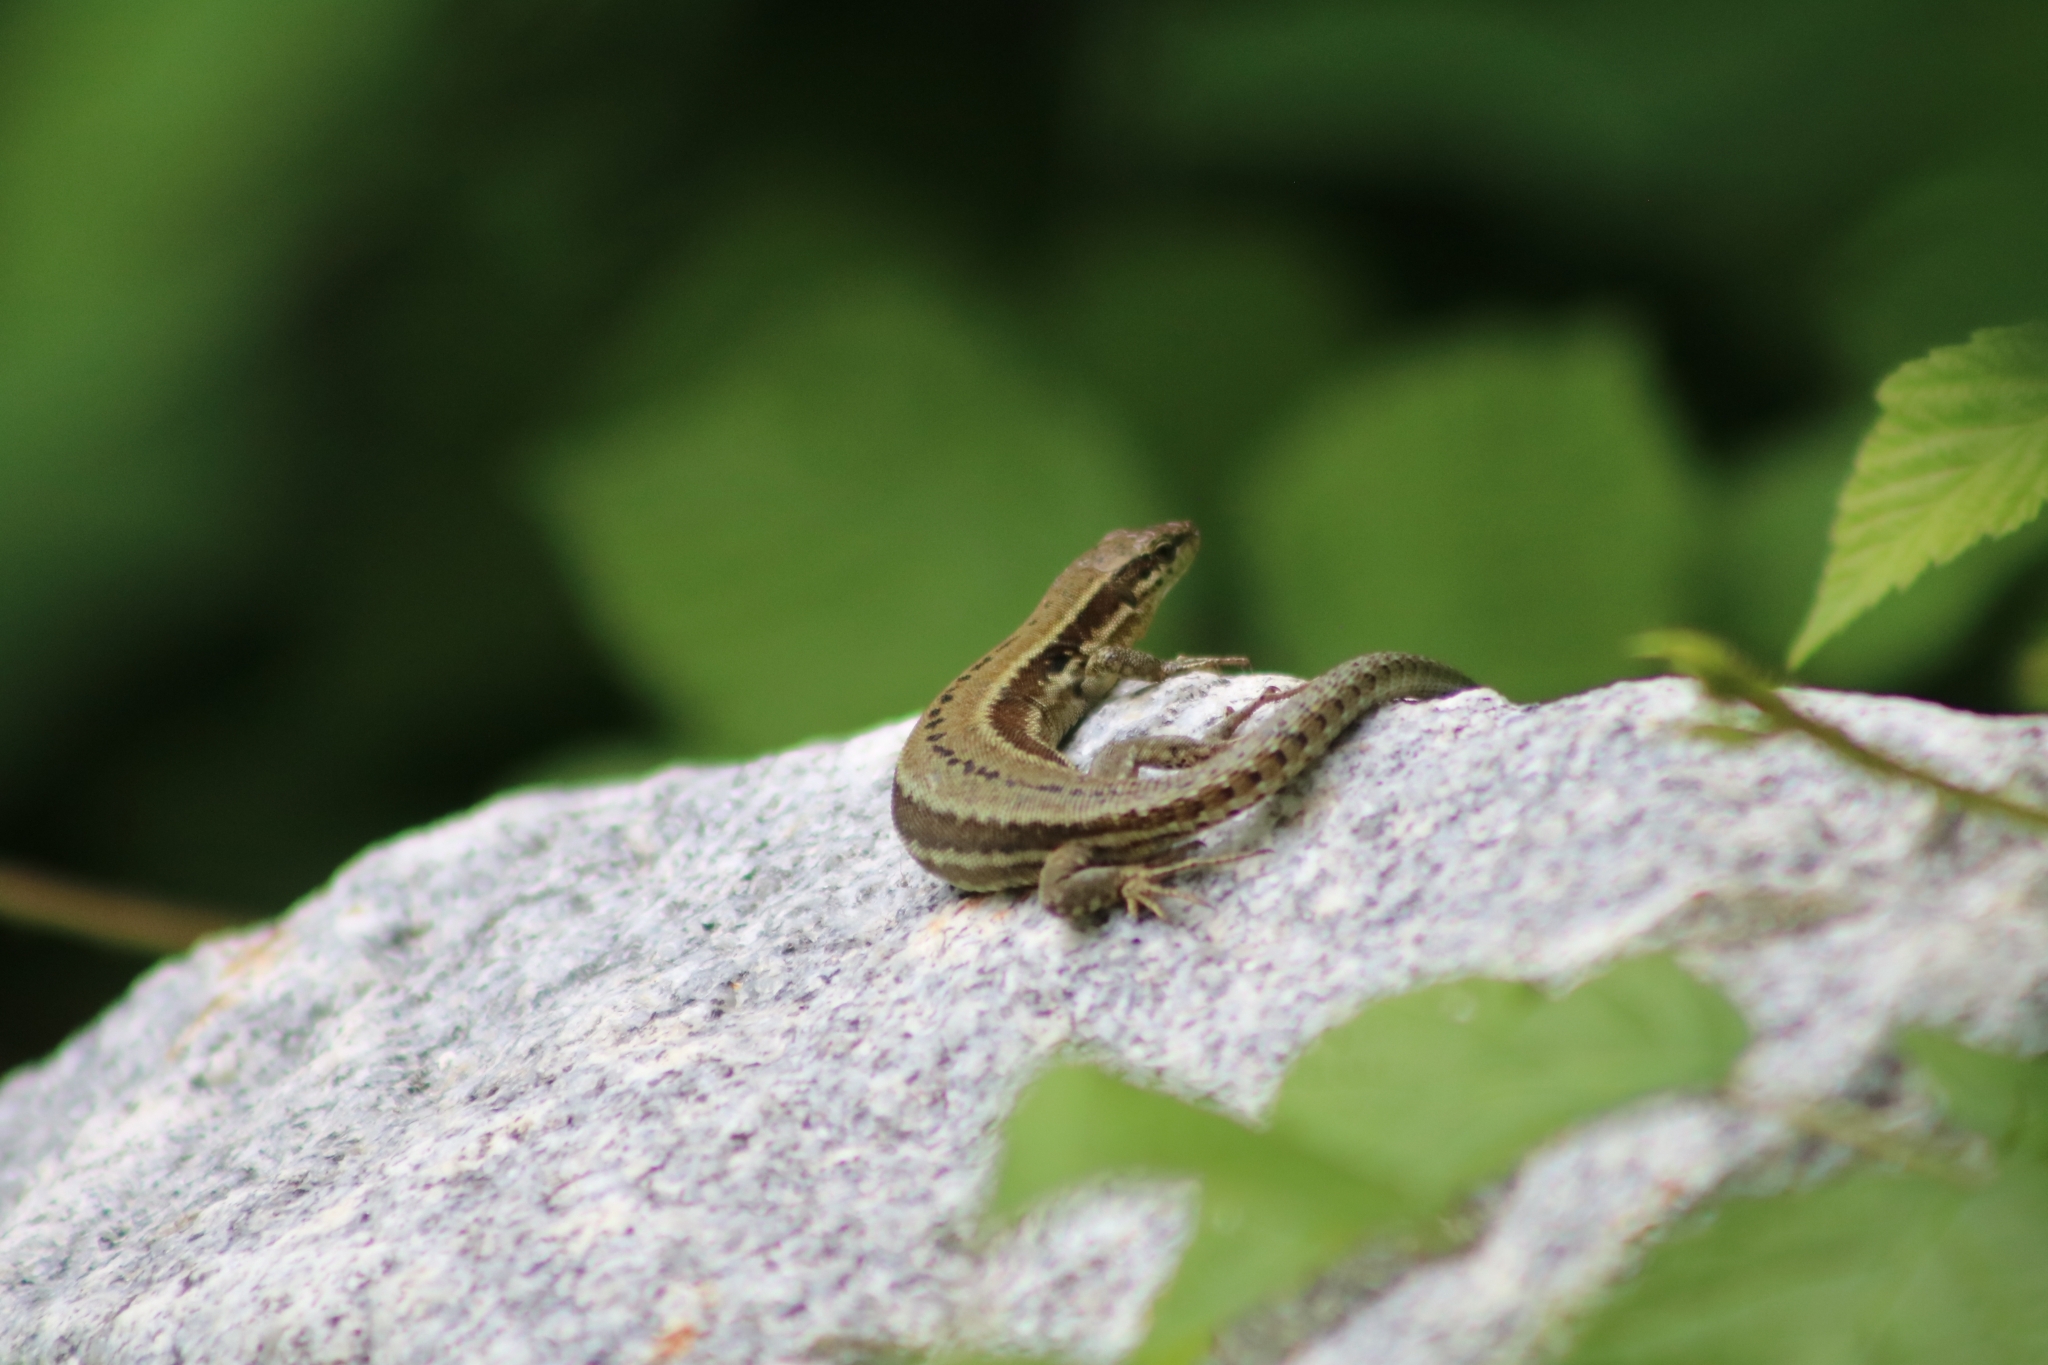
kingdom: Animalia
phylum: Chordata
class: Squamata
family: Lacertidae
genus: Podarcis
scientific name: Podarcis muralis
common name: Common wall lizard
